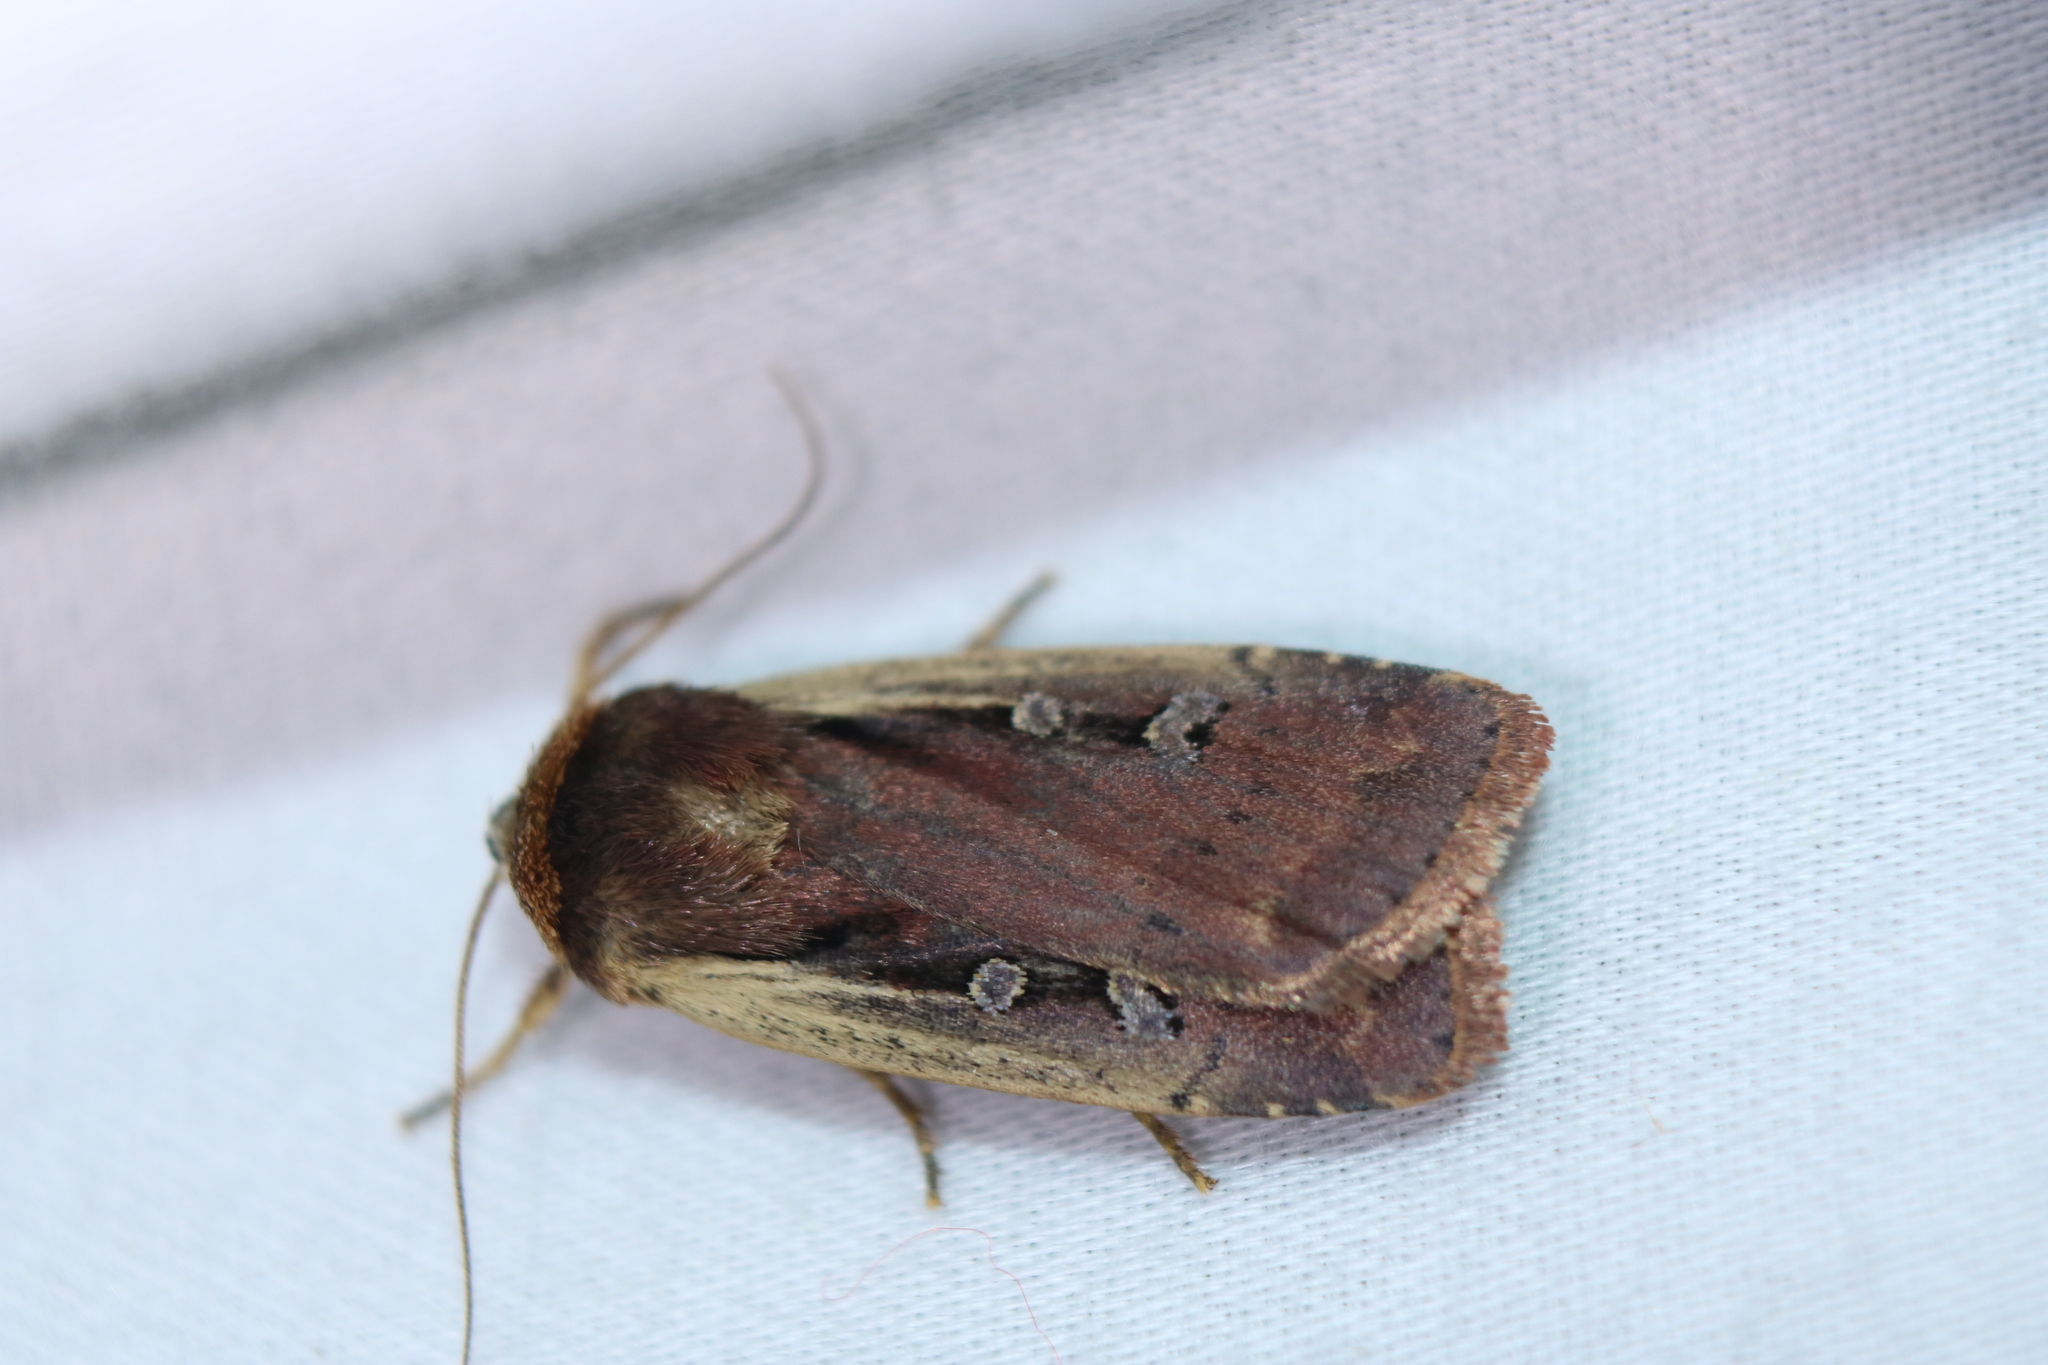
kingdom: Animalia
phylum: Arthropoda
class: Insecta
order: Lepidoptera
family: Noctuidae
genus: Ochropleura
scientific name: Ochropleura implecta
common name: Flame-shouldered dart
